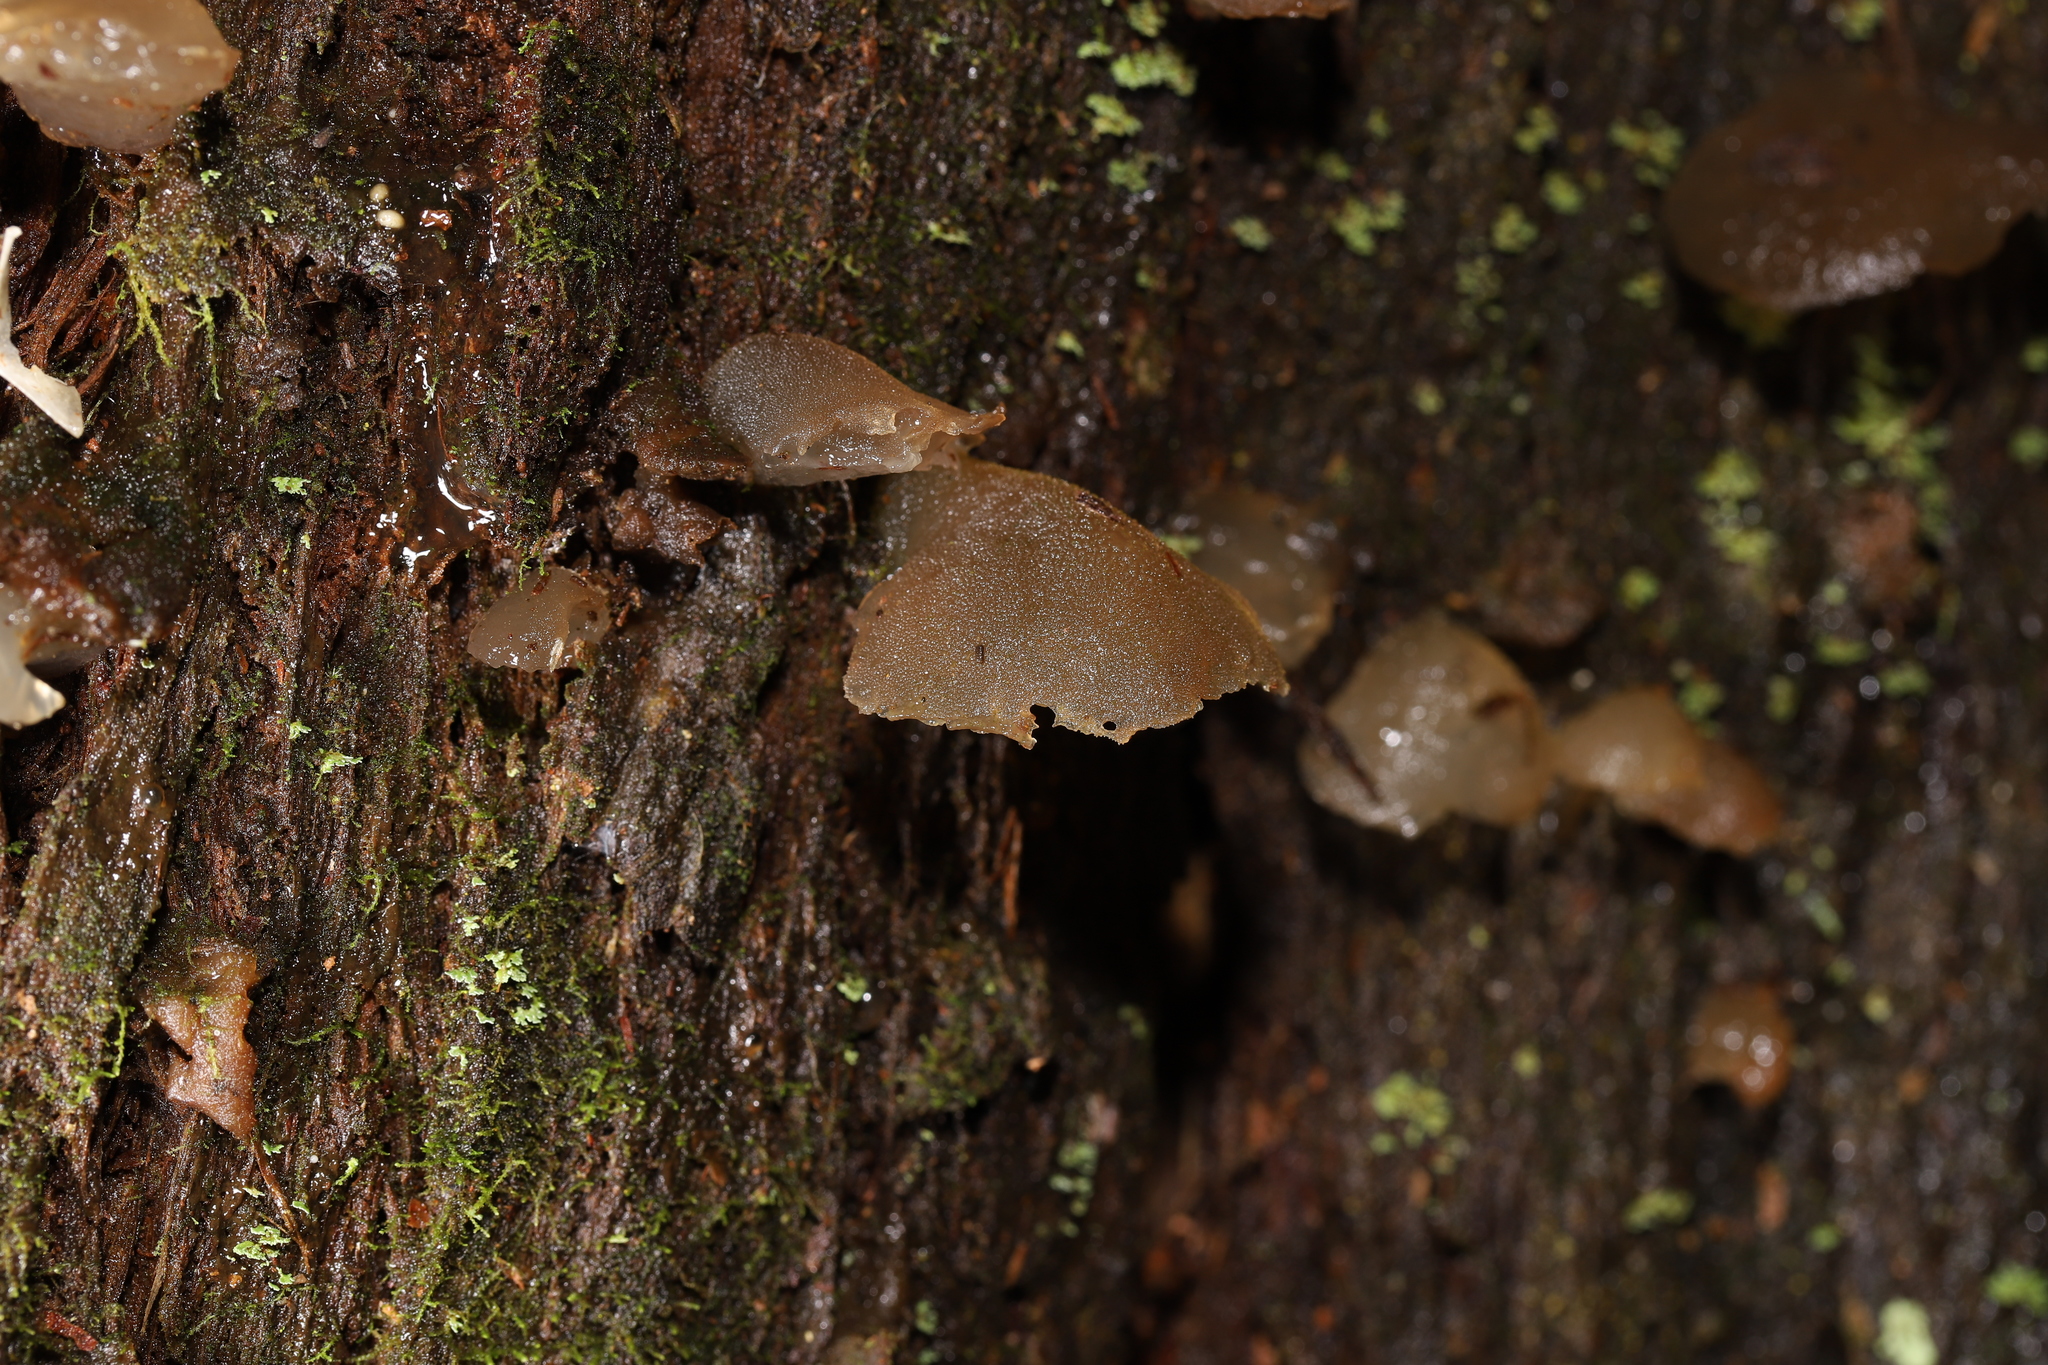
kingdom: Fungi
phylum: Basidiomycota
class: Agaricomycetes
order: Auriculariales
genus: Pseudohydnum
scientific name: Pseudohydnum gelatinosum
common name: Jelly tongue
